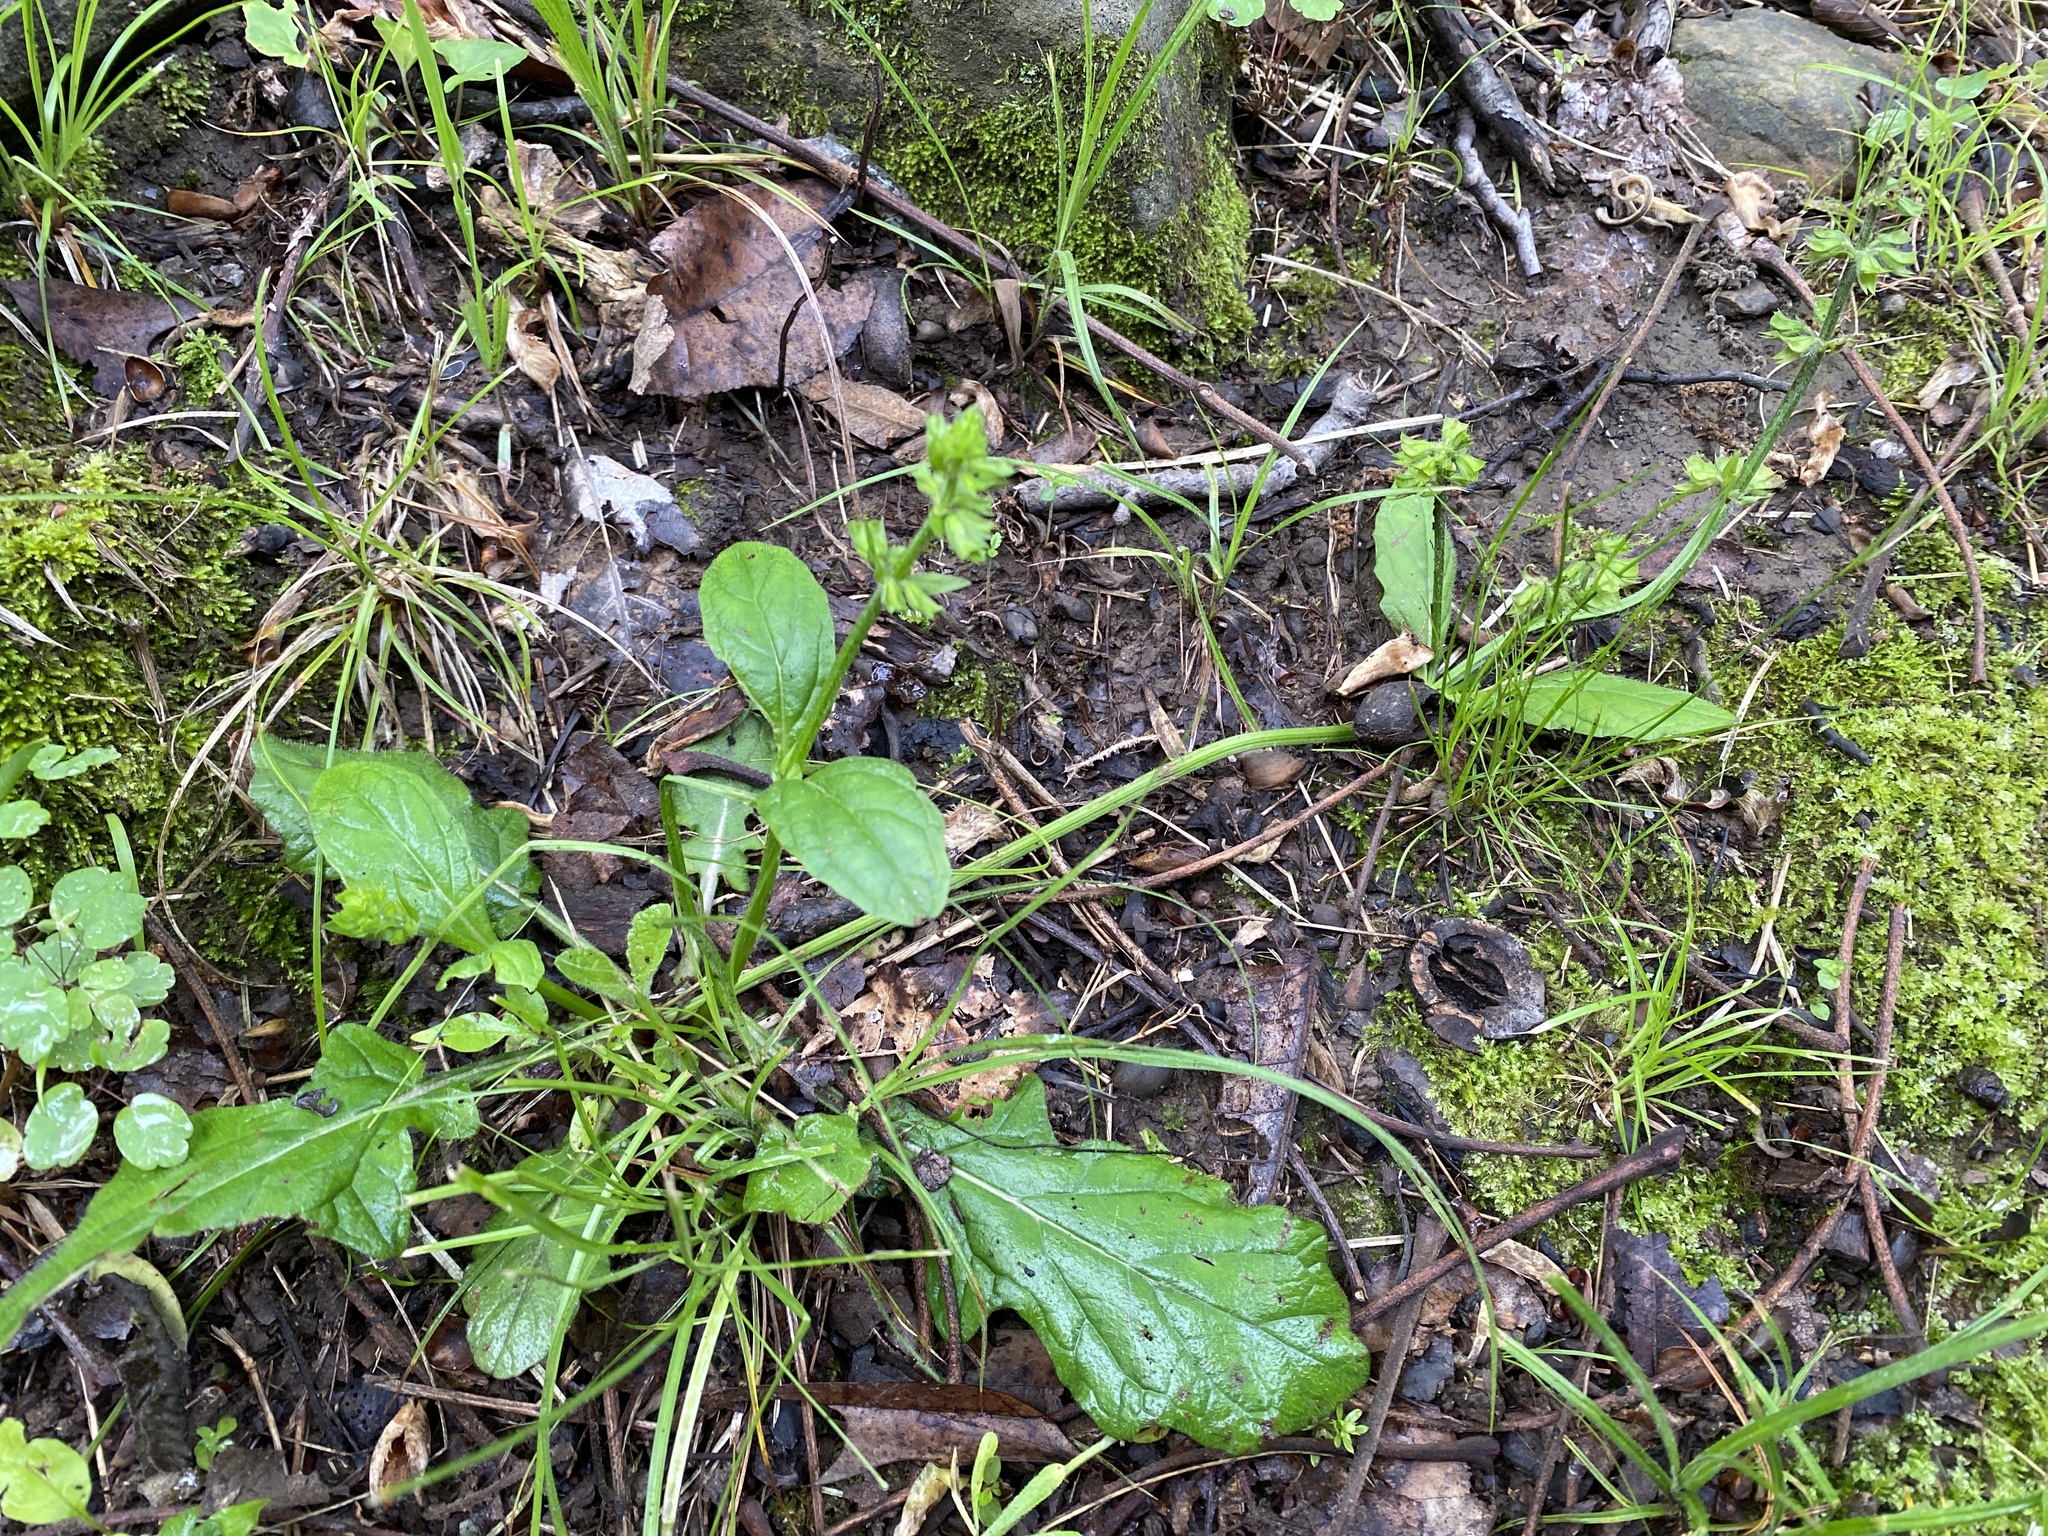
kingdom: Plantae
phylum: Tracheophyta
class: Magnoliopsida
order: Lamiales
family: Lamiaceae
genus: Salvia
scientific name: Salvia lyrata
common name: Cancerweed
